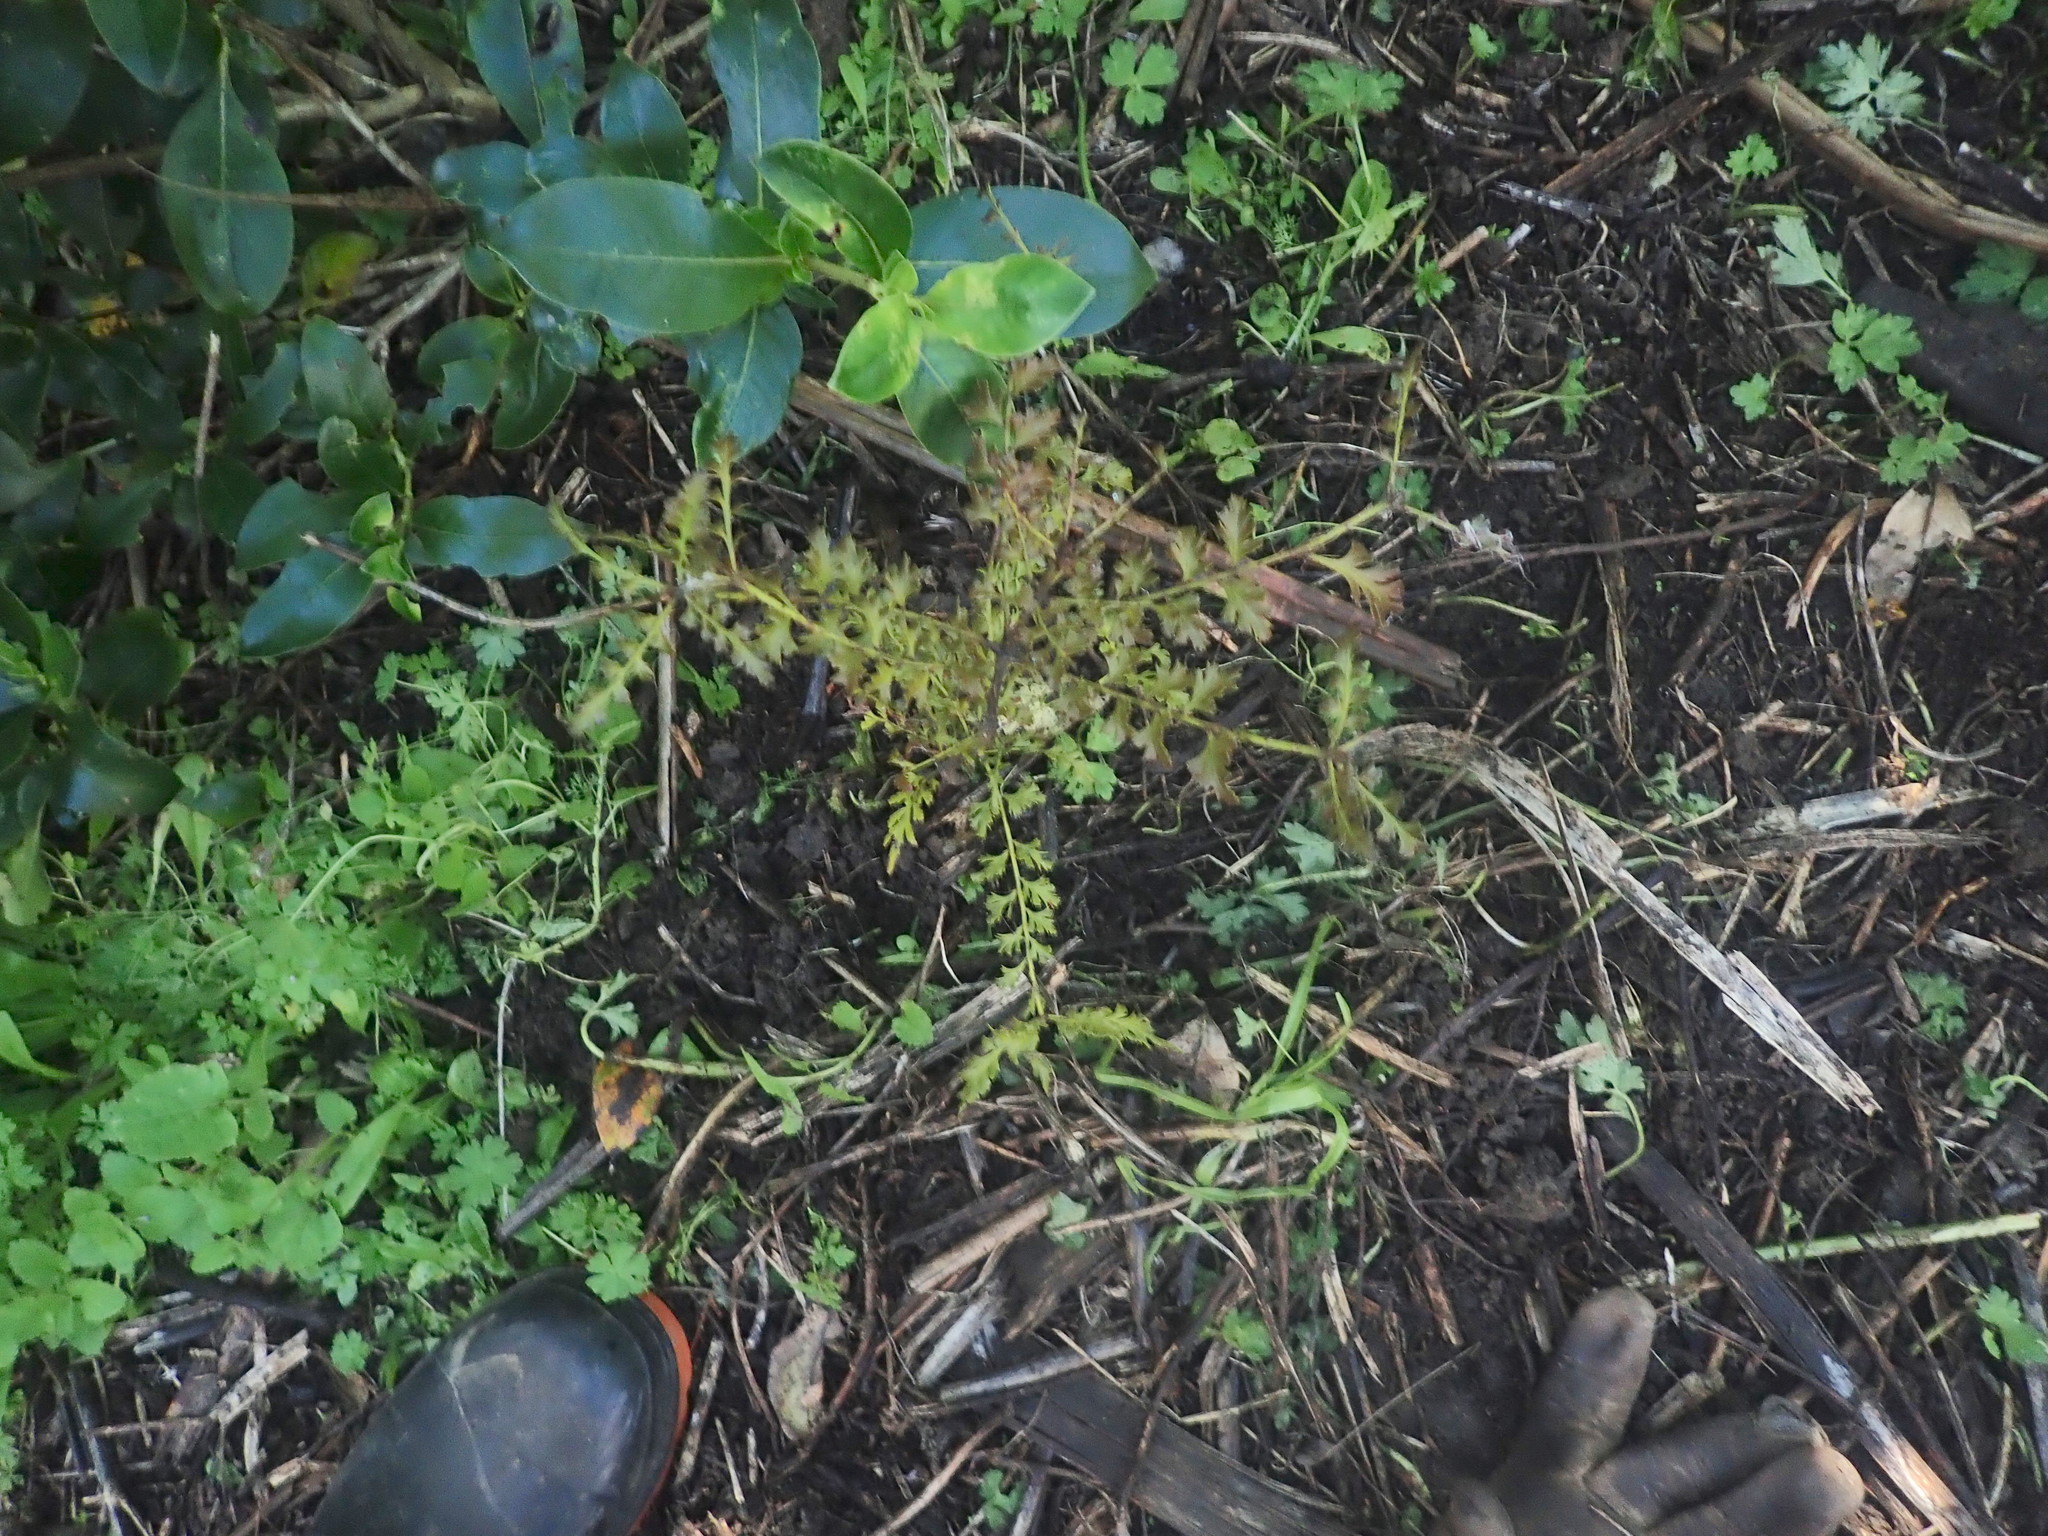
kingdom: Plantae
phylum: Tracheophyta
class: Pinopsida
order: Pinales
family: Phyllocladaceae
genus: Phyllocladus
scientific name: Phyllocladus trichomanoides
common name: Celery pine
